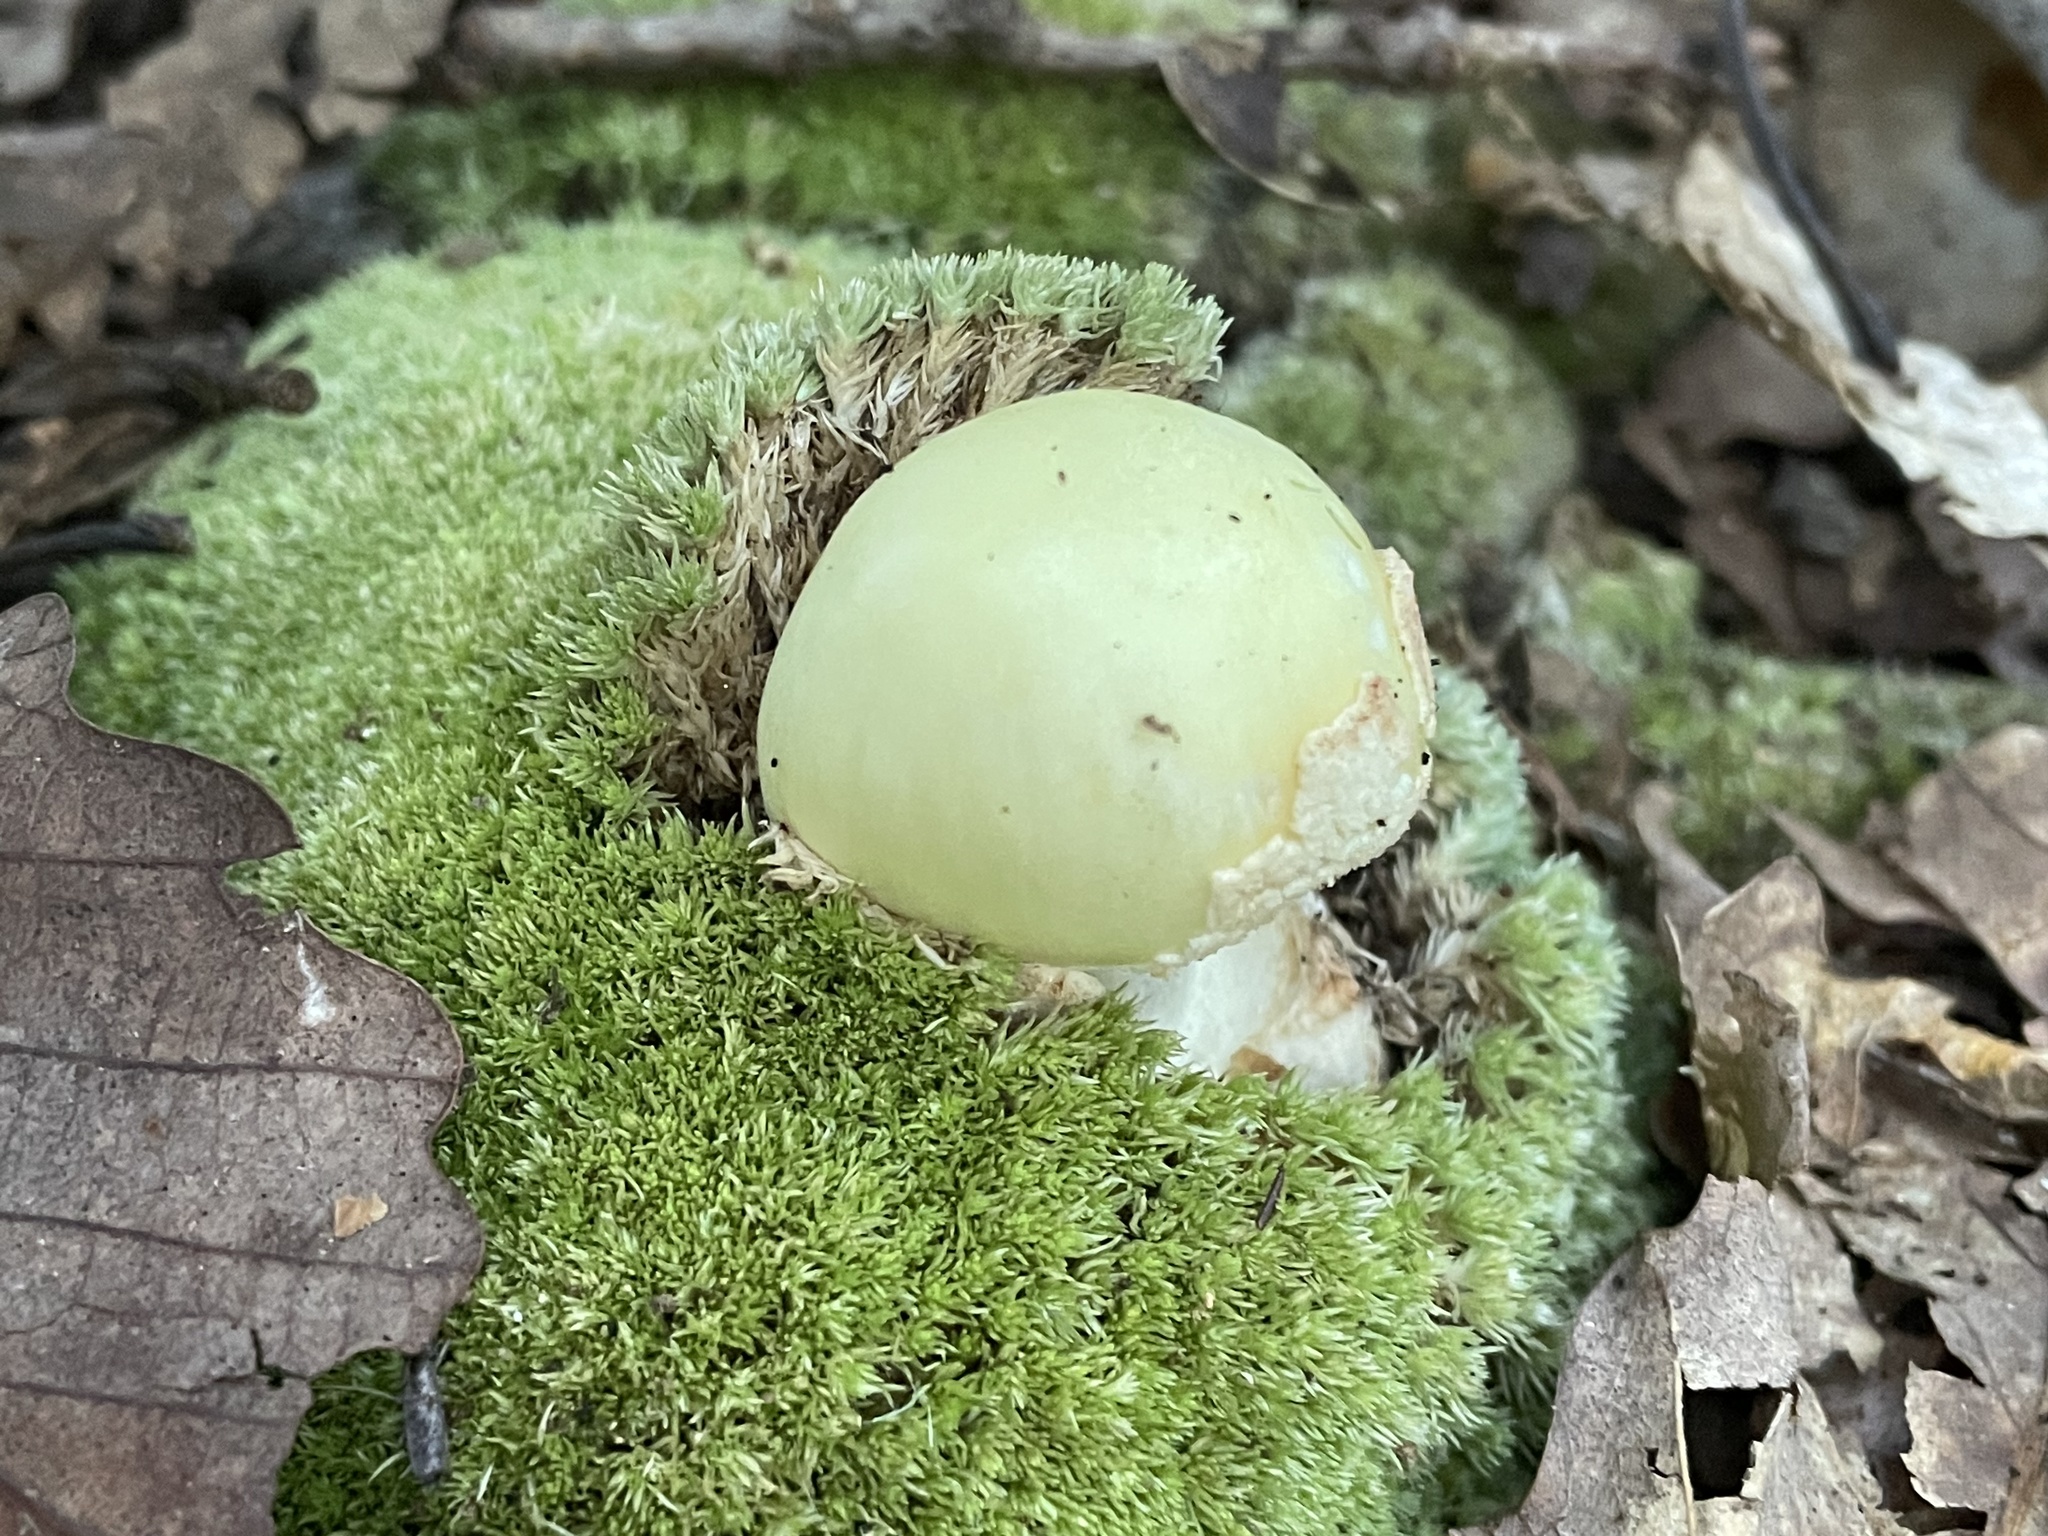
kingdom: Fungi
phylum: Basidiomycota
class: Agaricomycetes
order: Agaricales
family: Amanitaceae
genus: Amanita
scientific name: Amanita lavendula
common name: Coker's lavender staining amanita
